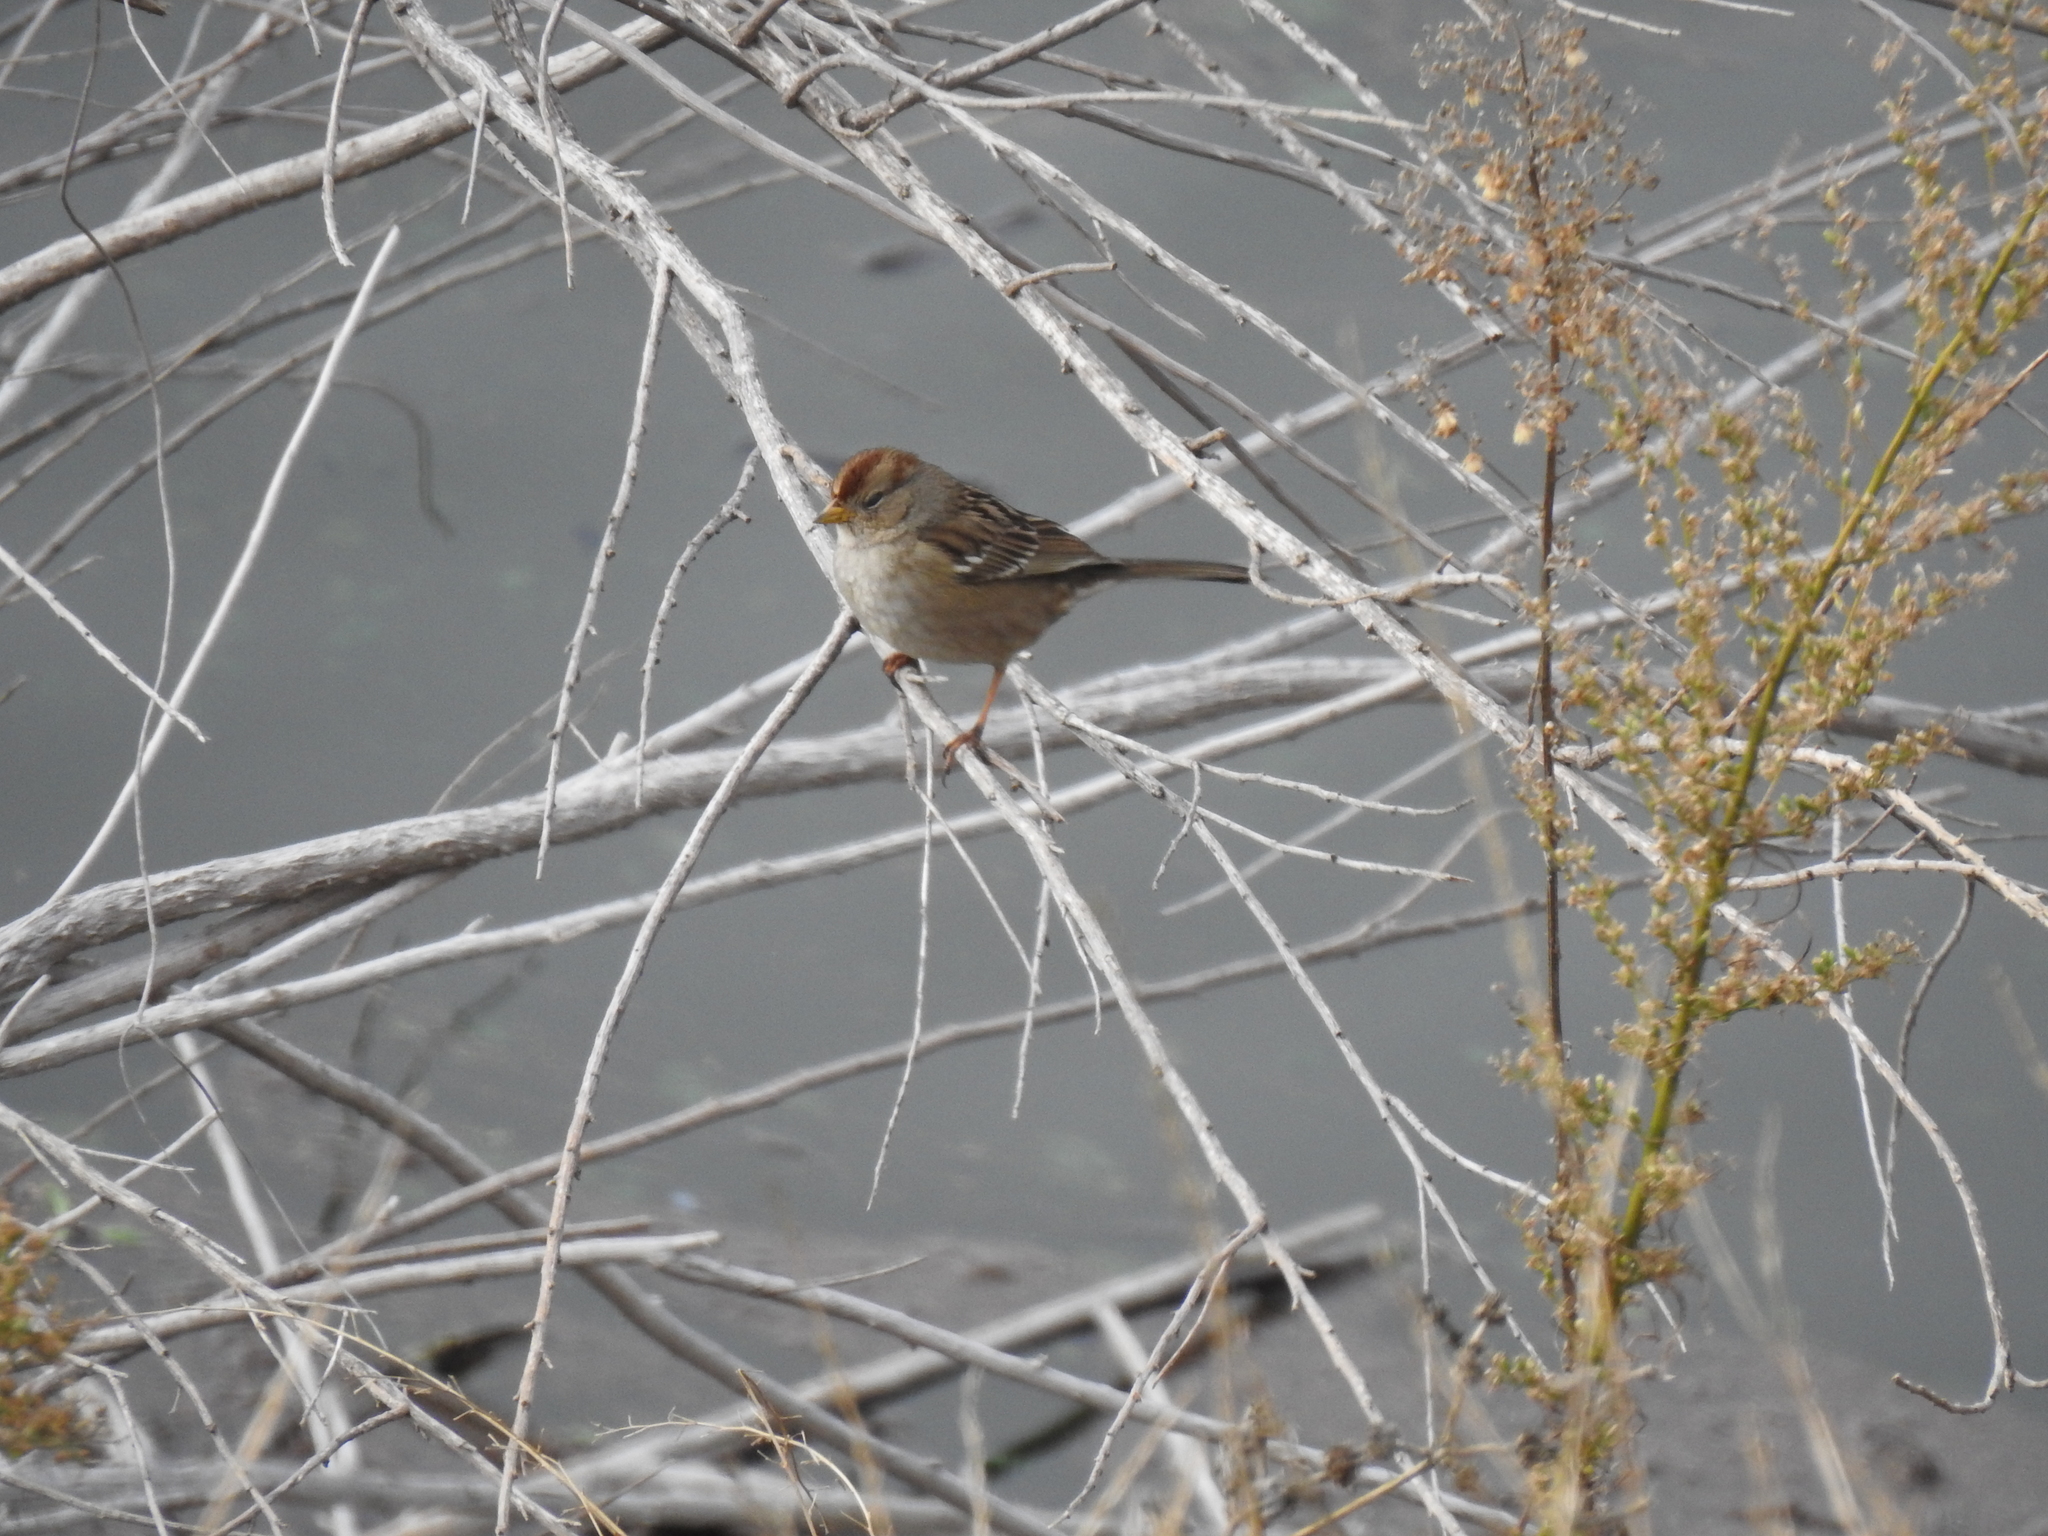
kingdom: Animalia
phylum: Chordata
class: Aves
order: Passeriformes
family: Passerellidae
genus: Zonotrichia
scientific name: Zonotrichia leucophrys
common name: White-crowned sparrow
